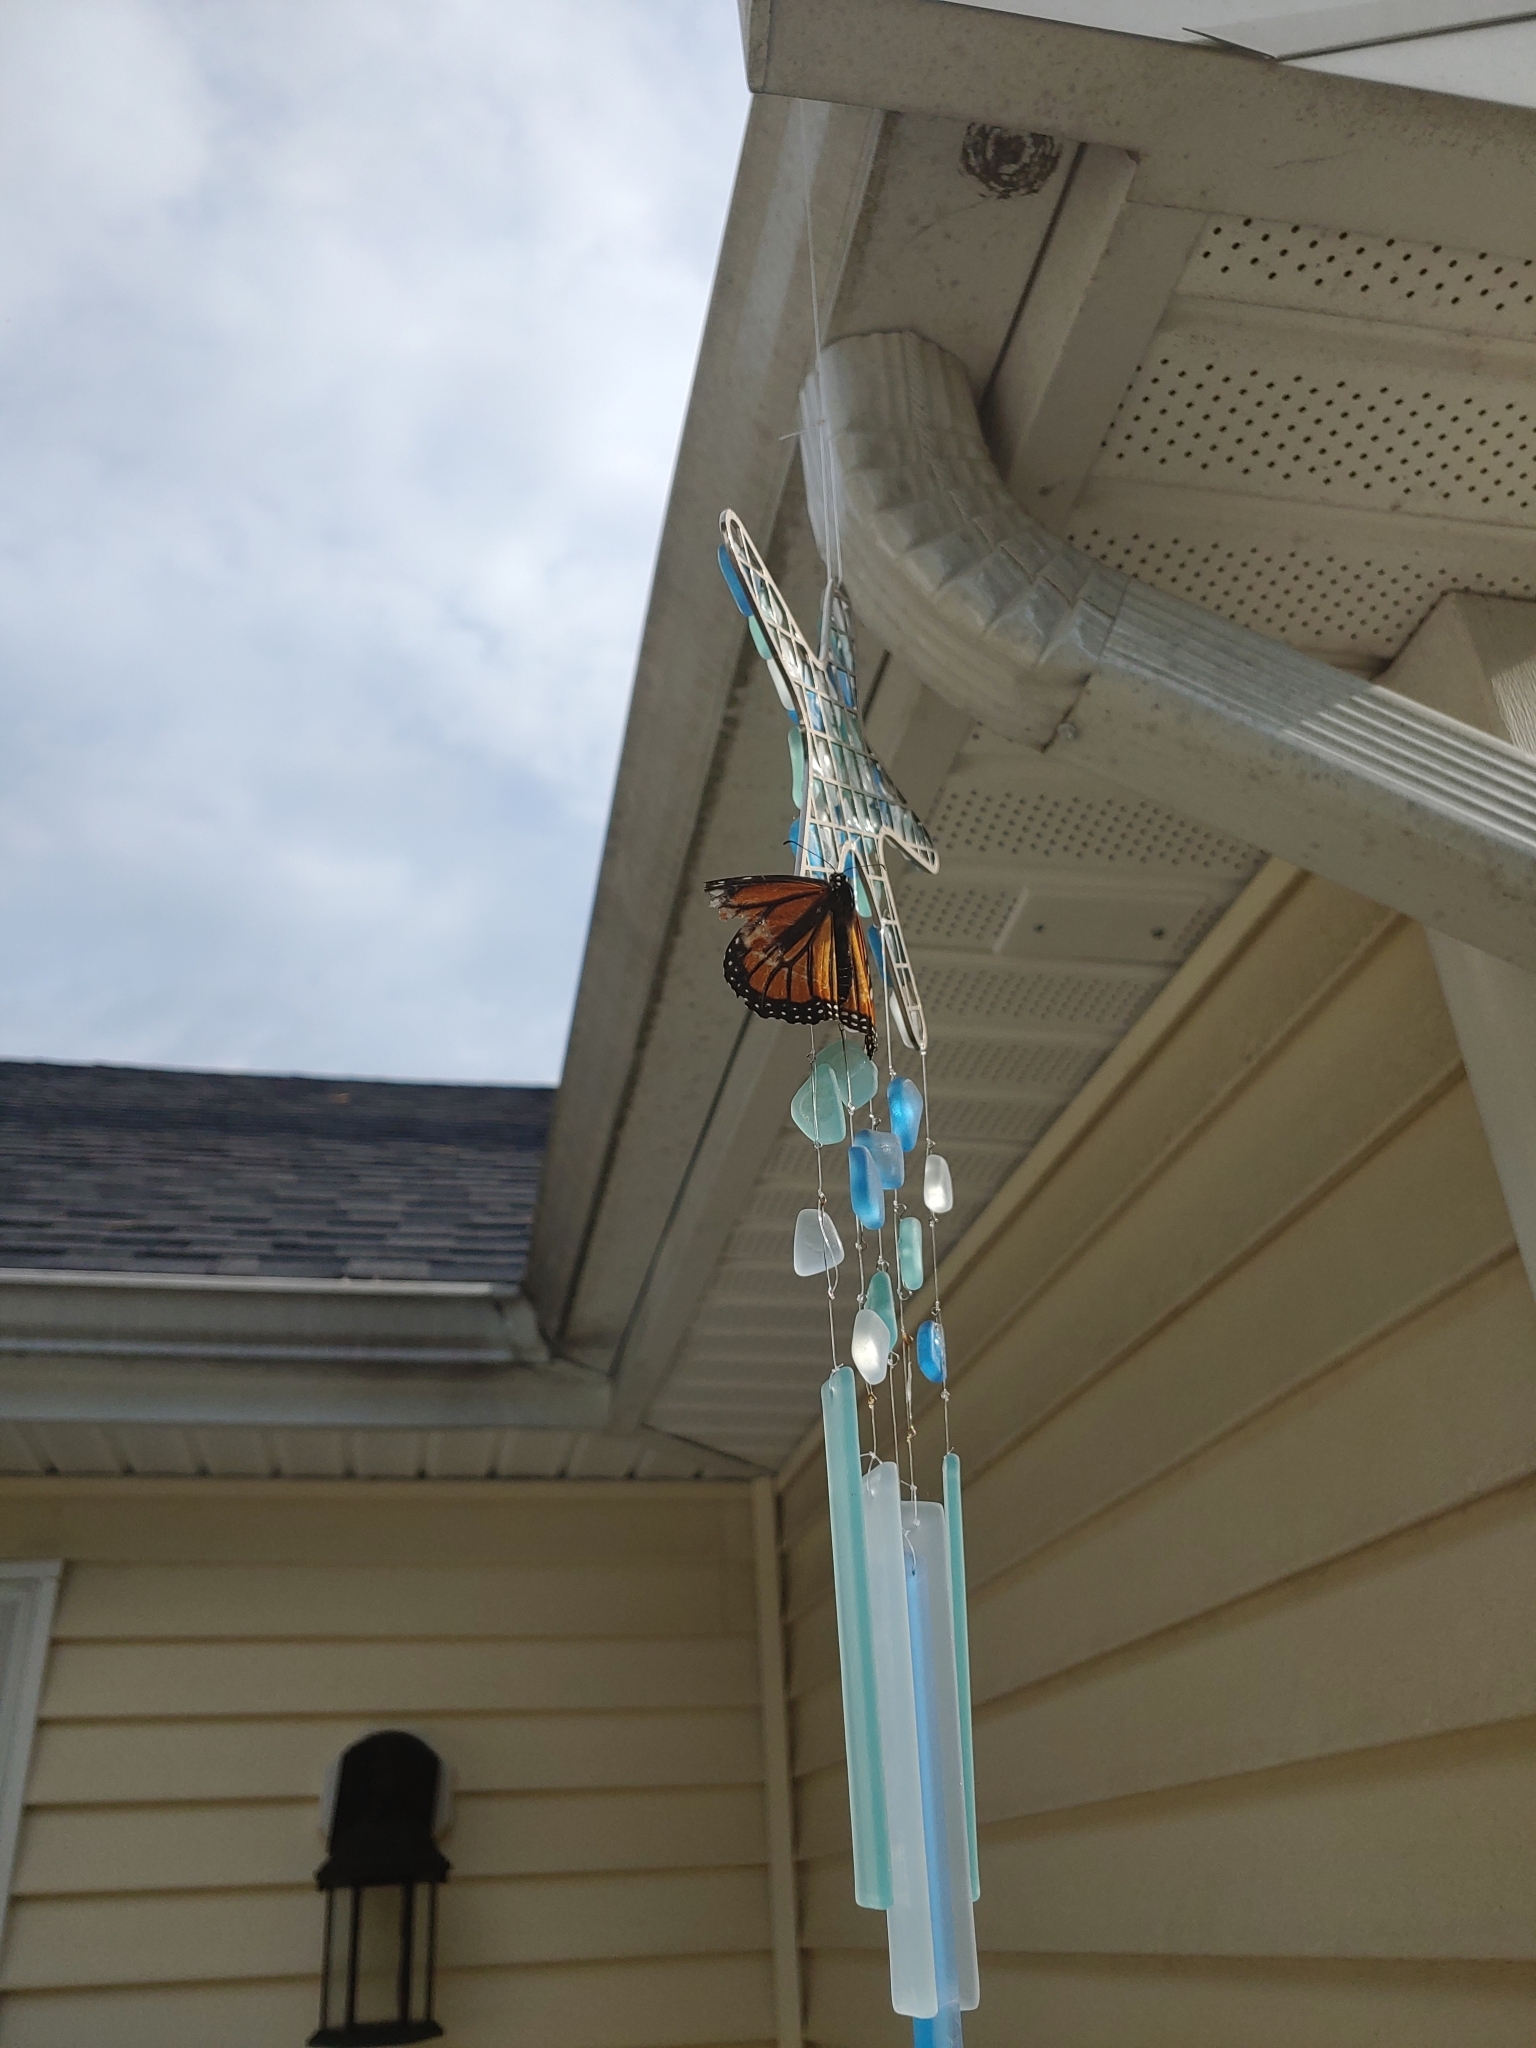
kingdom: Animalia
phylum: Arthropoda
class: Insecta
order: Lepidoptera
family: Nymphalidae
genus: Danaus
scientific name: Danaus plexippus
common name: Monarch
